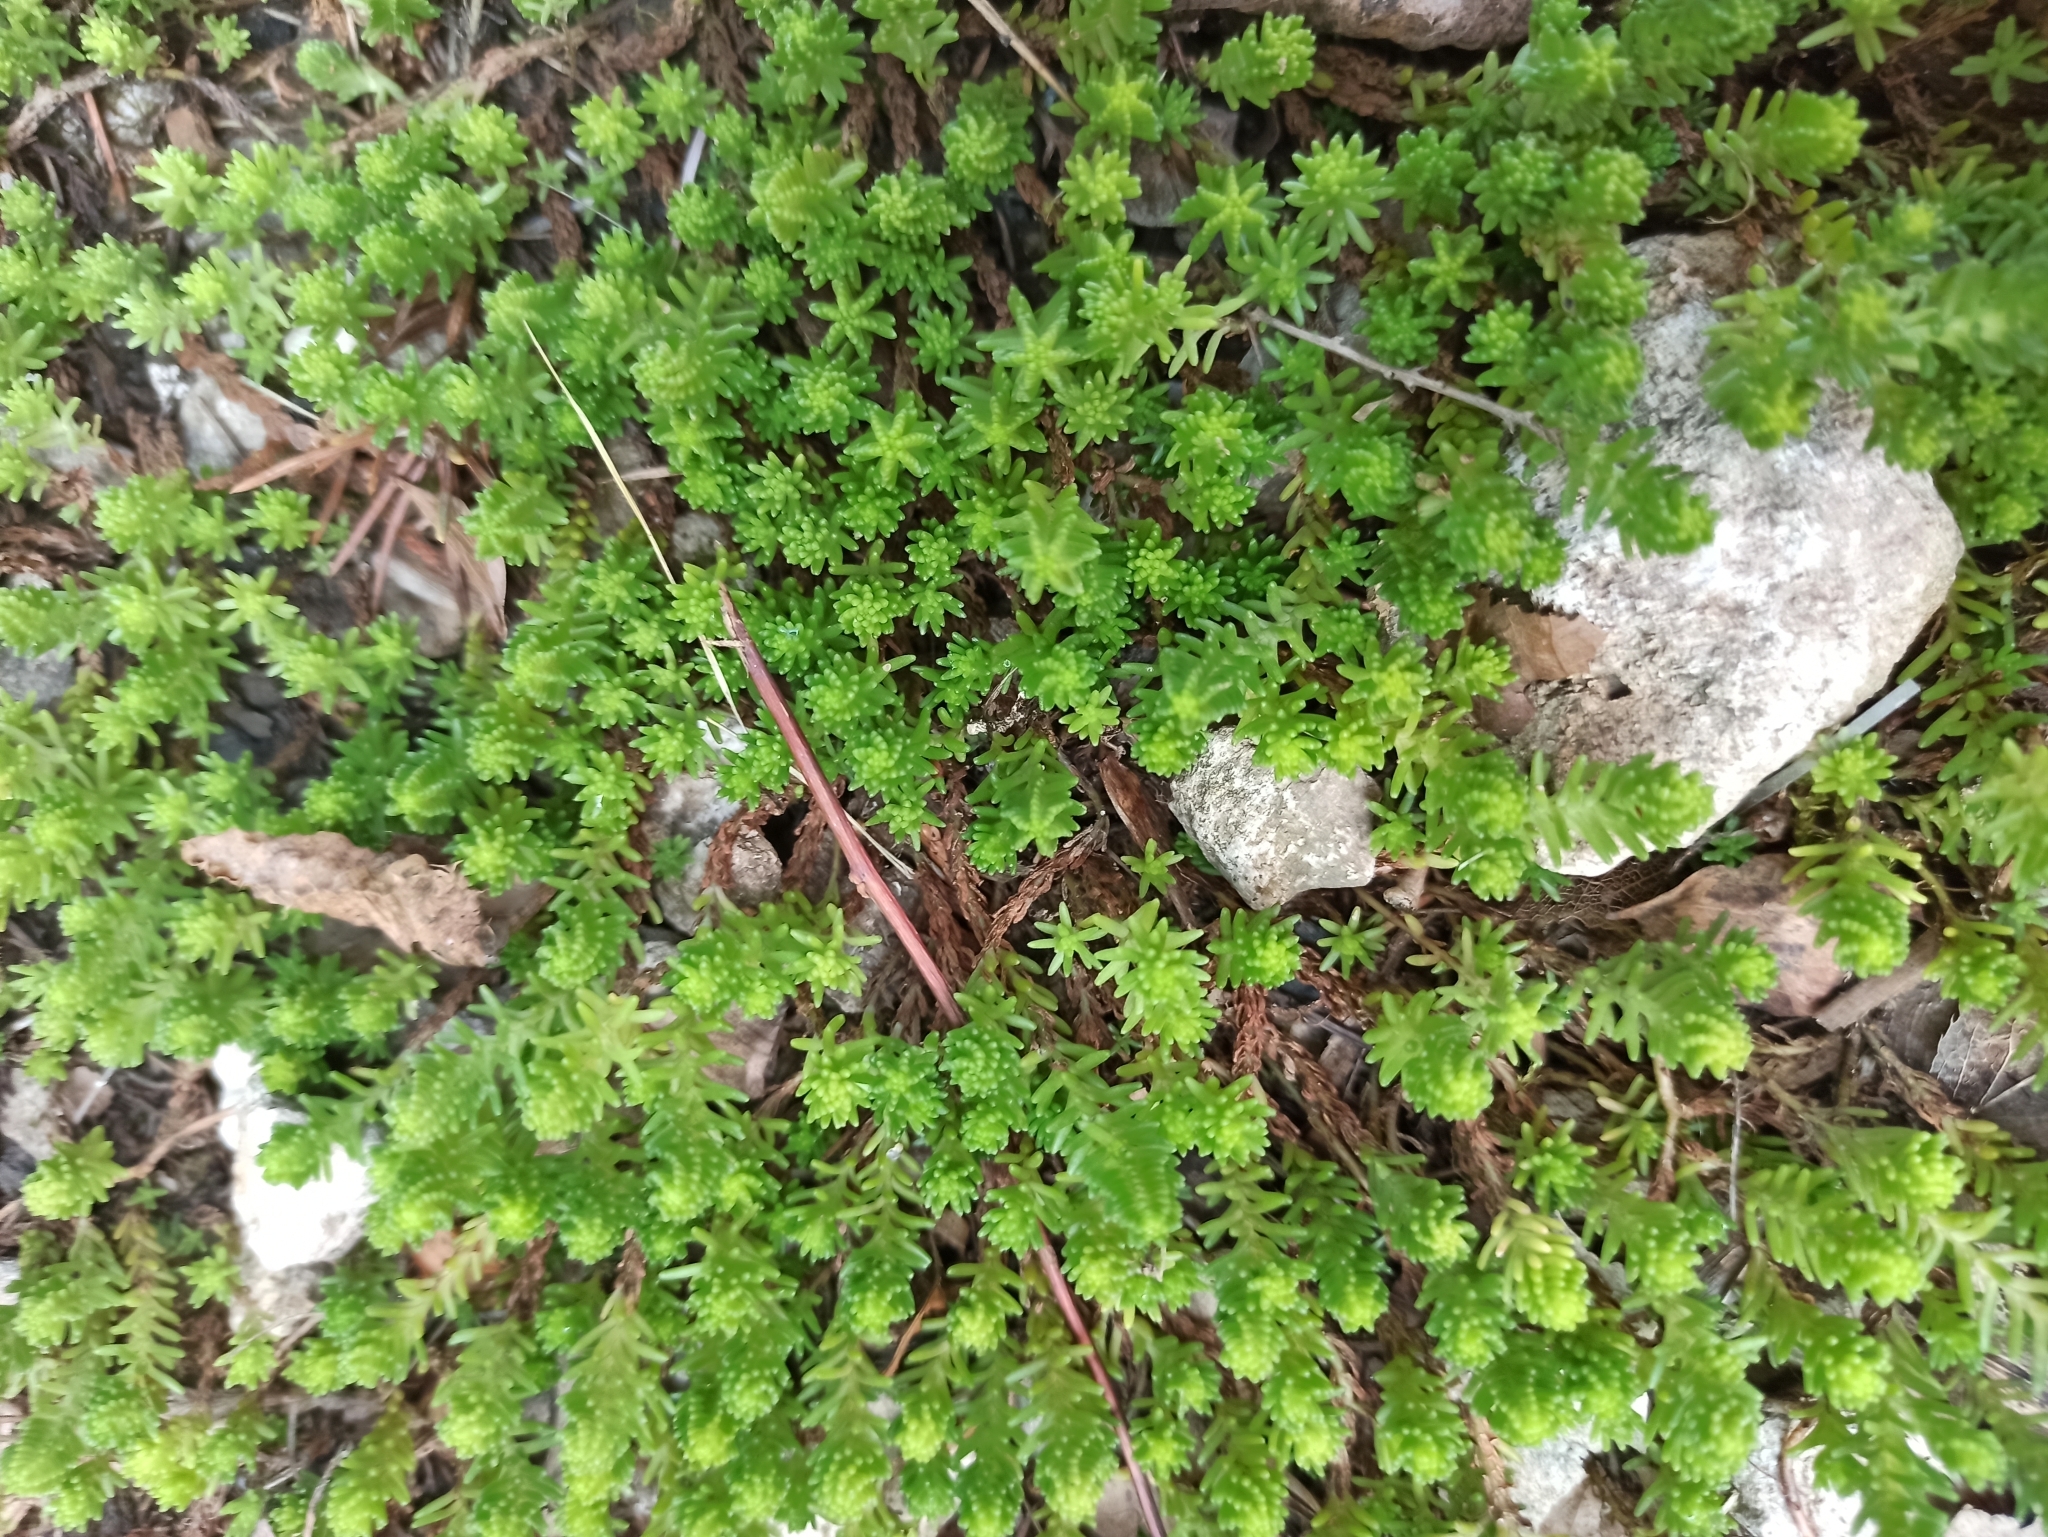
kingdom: Plantae
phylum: Tracheophyta
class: Magnoliopsida
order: Saxifragales
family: Crassulaceae
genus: Sedum
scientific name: Sedum sexangulare
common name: Tasteless stonecrop
